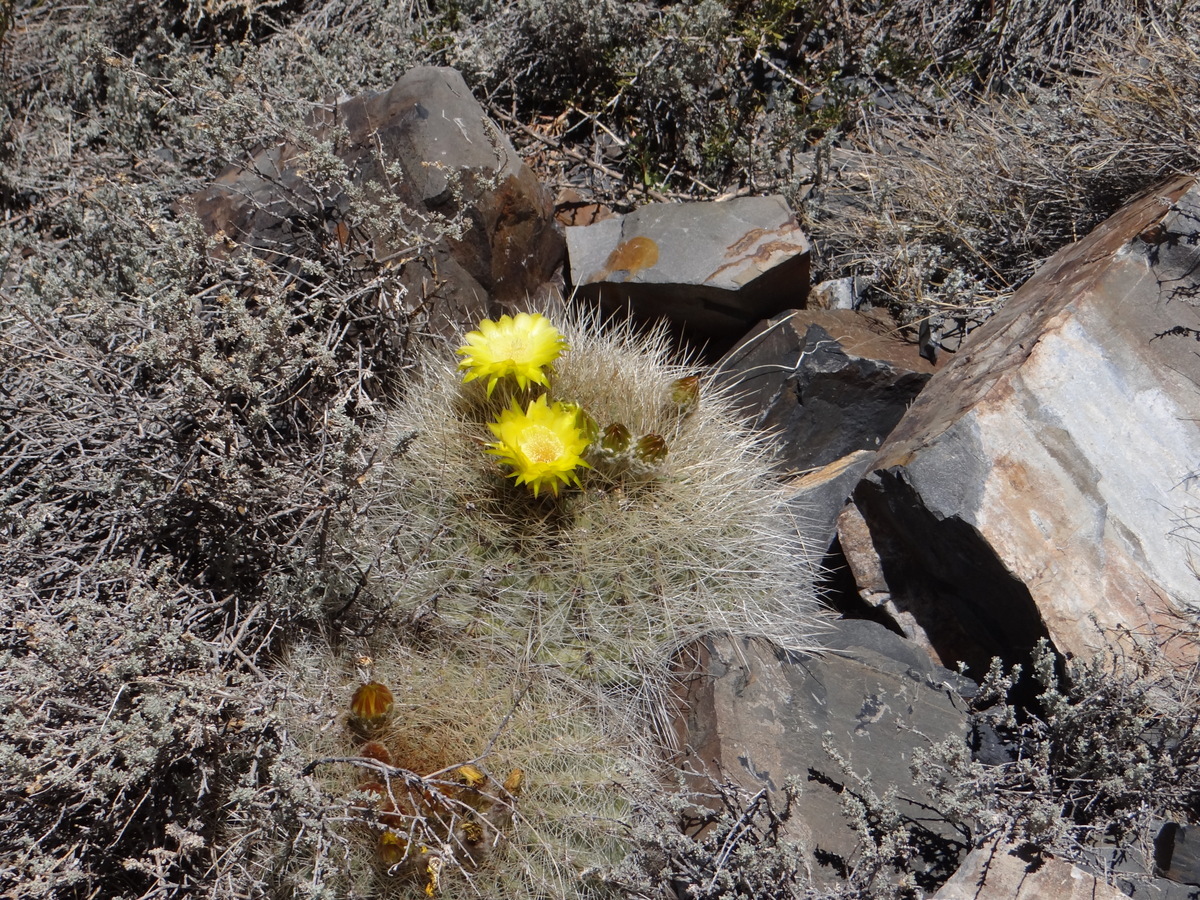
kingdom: Plantae
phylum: Tracheophyta
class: Magnoliopsida
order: Caryophyllales
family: Cactaceae
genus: Soehrensia
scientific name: Soehrensia formosa
